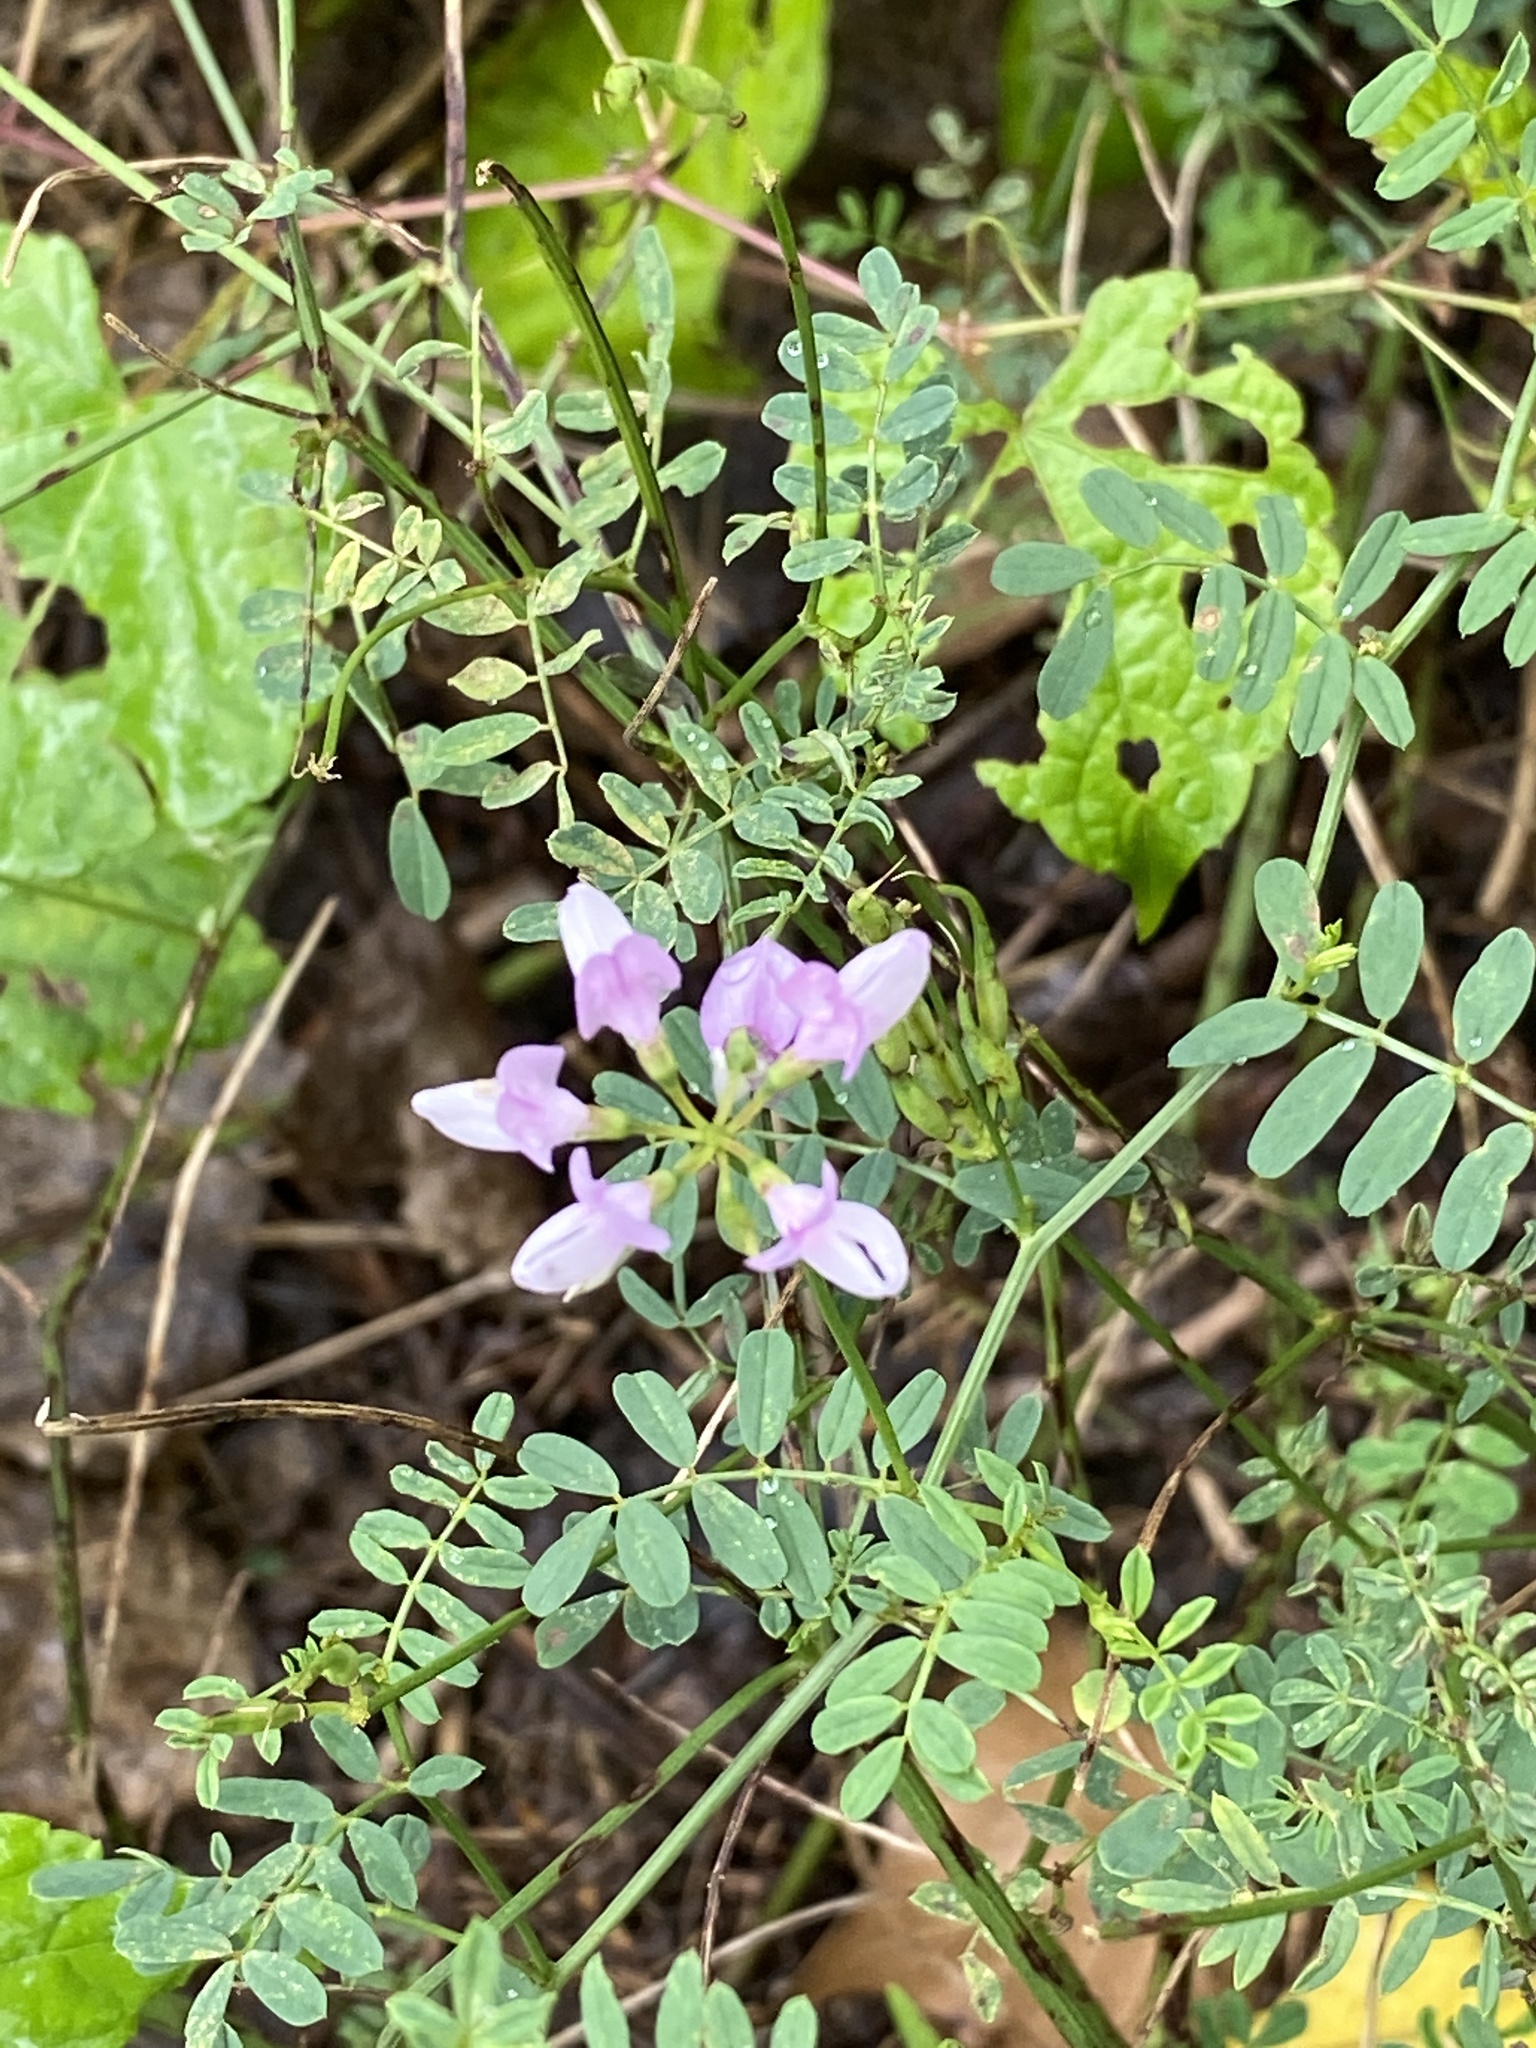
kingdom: Plantae
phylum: Tracheophyta
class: Magnoliopsida
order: Fabales
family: Fabaceae
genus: Coronilla
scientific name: Coronilla varia
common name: Crownvetch
